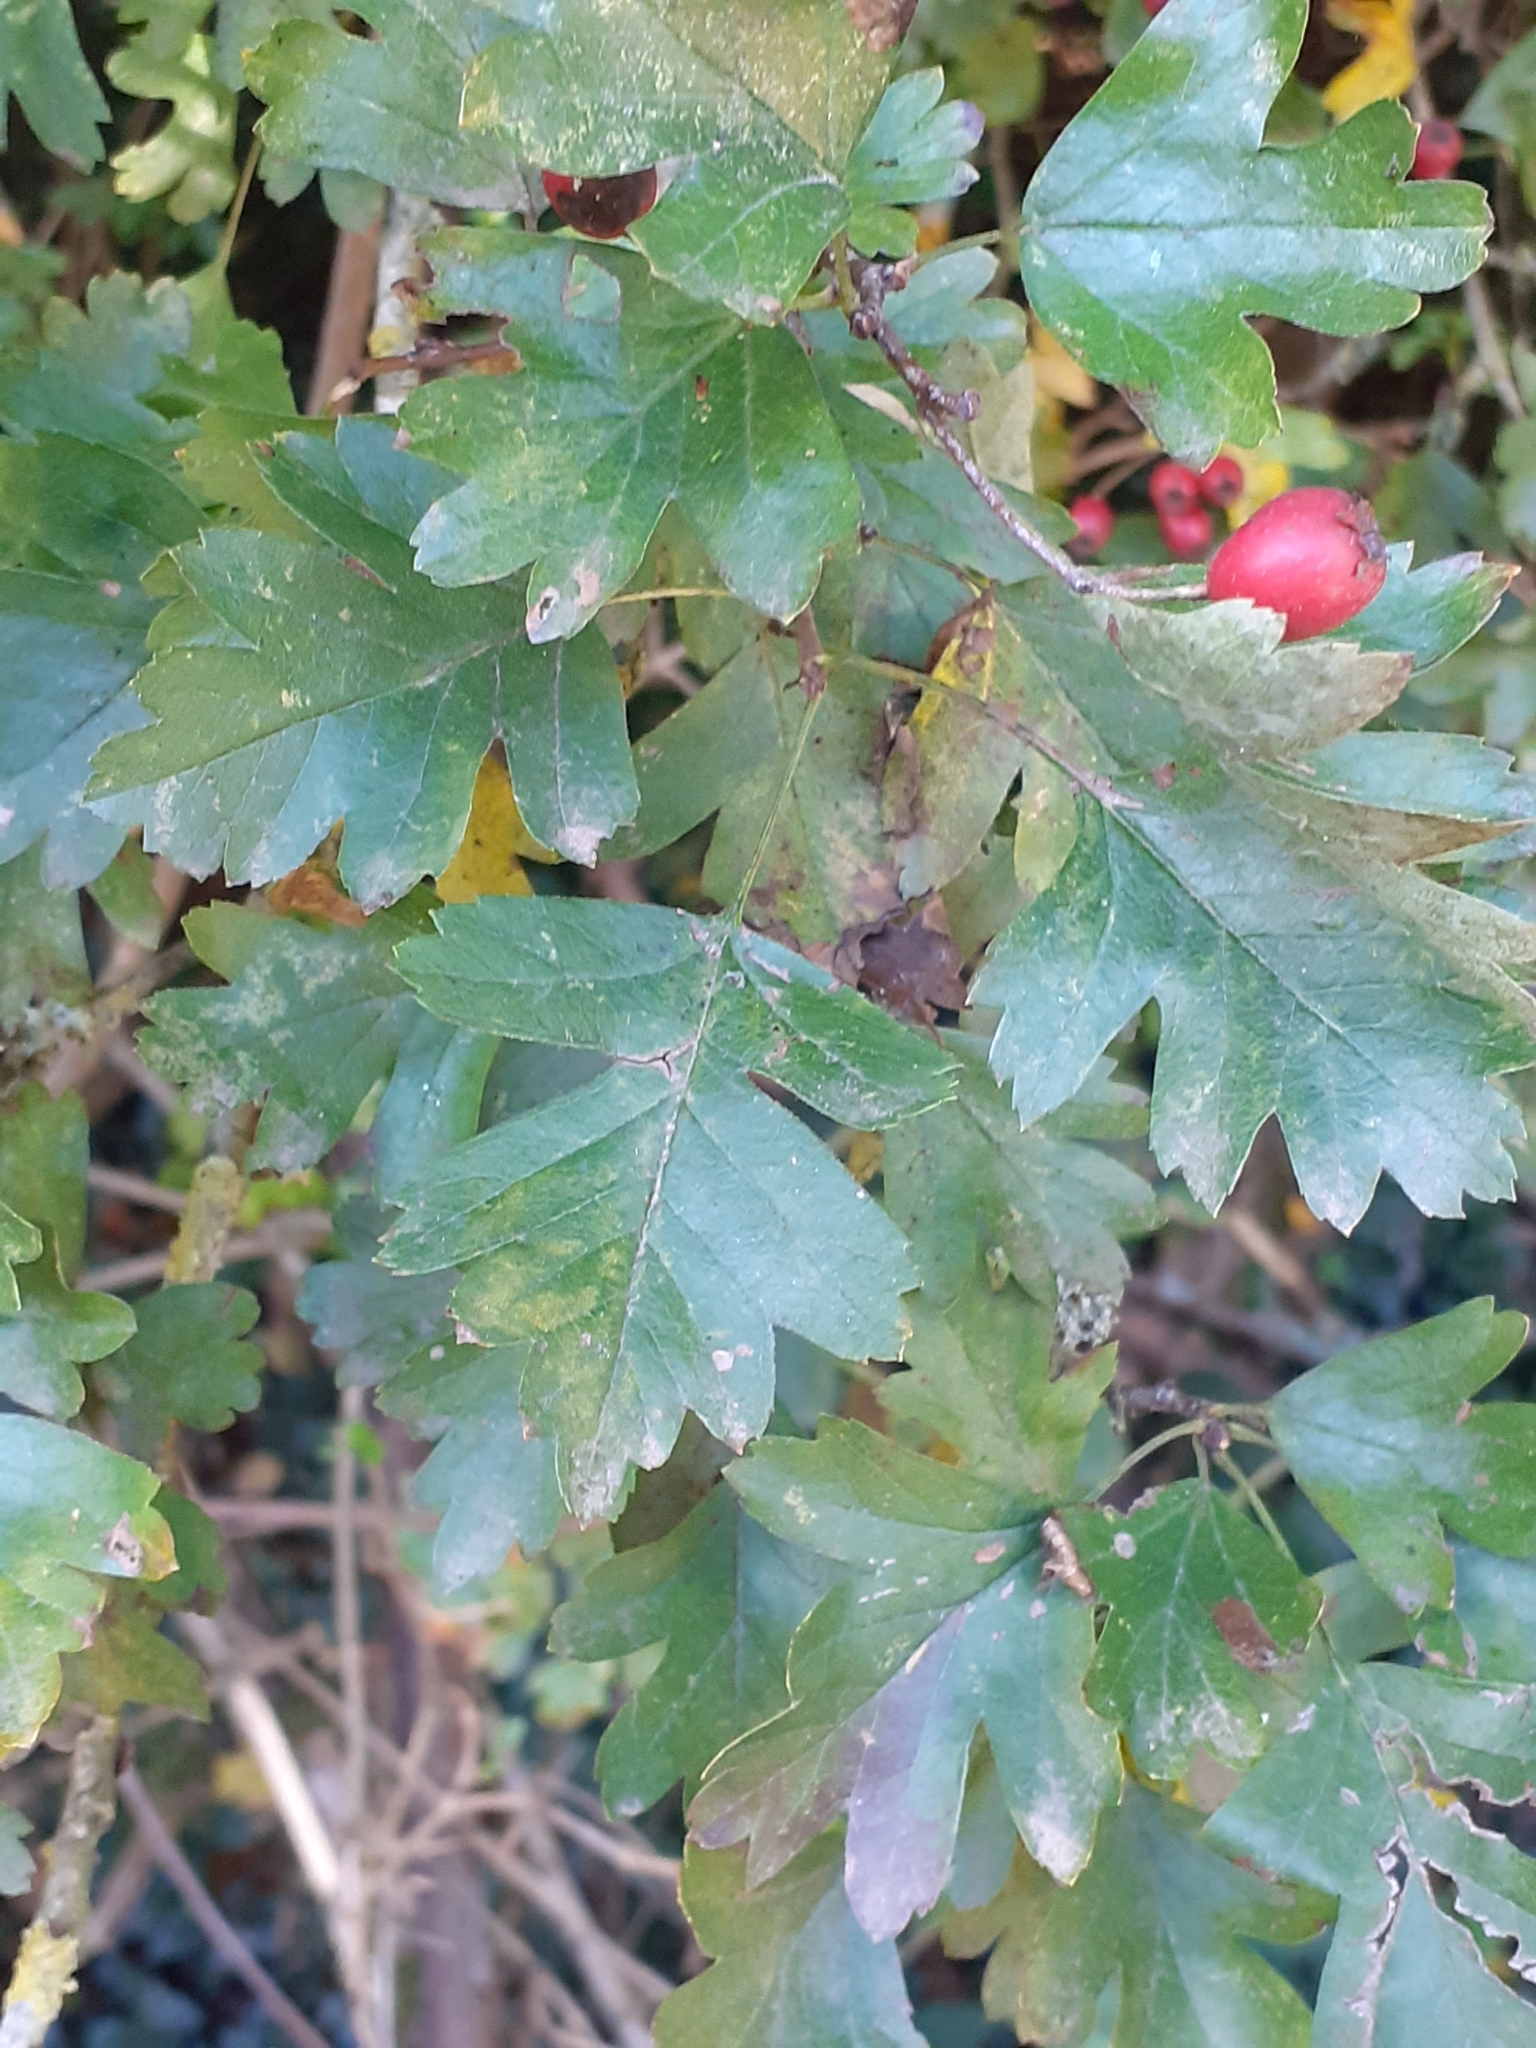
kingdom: Plantae
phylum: Tracheophyta
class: Magnoliopsida
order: Rosales
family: Rosaceae
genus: Crataegus
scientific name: Crataegus monogyna
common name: Hawthorn
